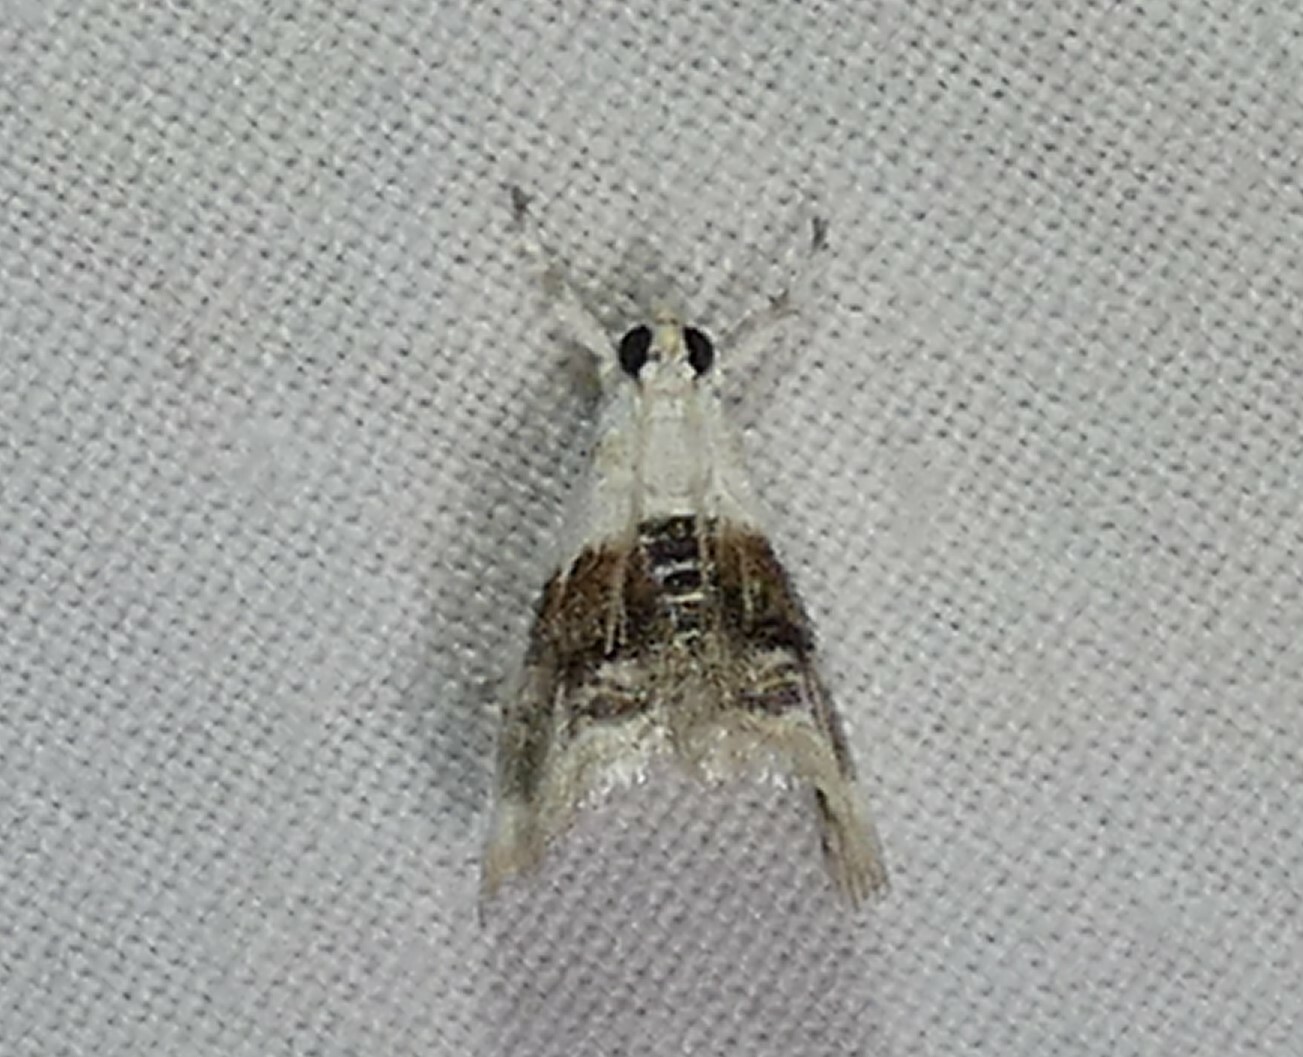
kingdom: Animalia
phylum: Arthropoda
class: Insecta
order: Lepidoptera
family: Crambidae
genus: Lipocosma
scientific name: Lipocosma septa
